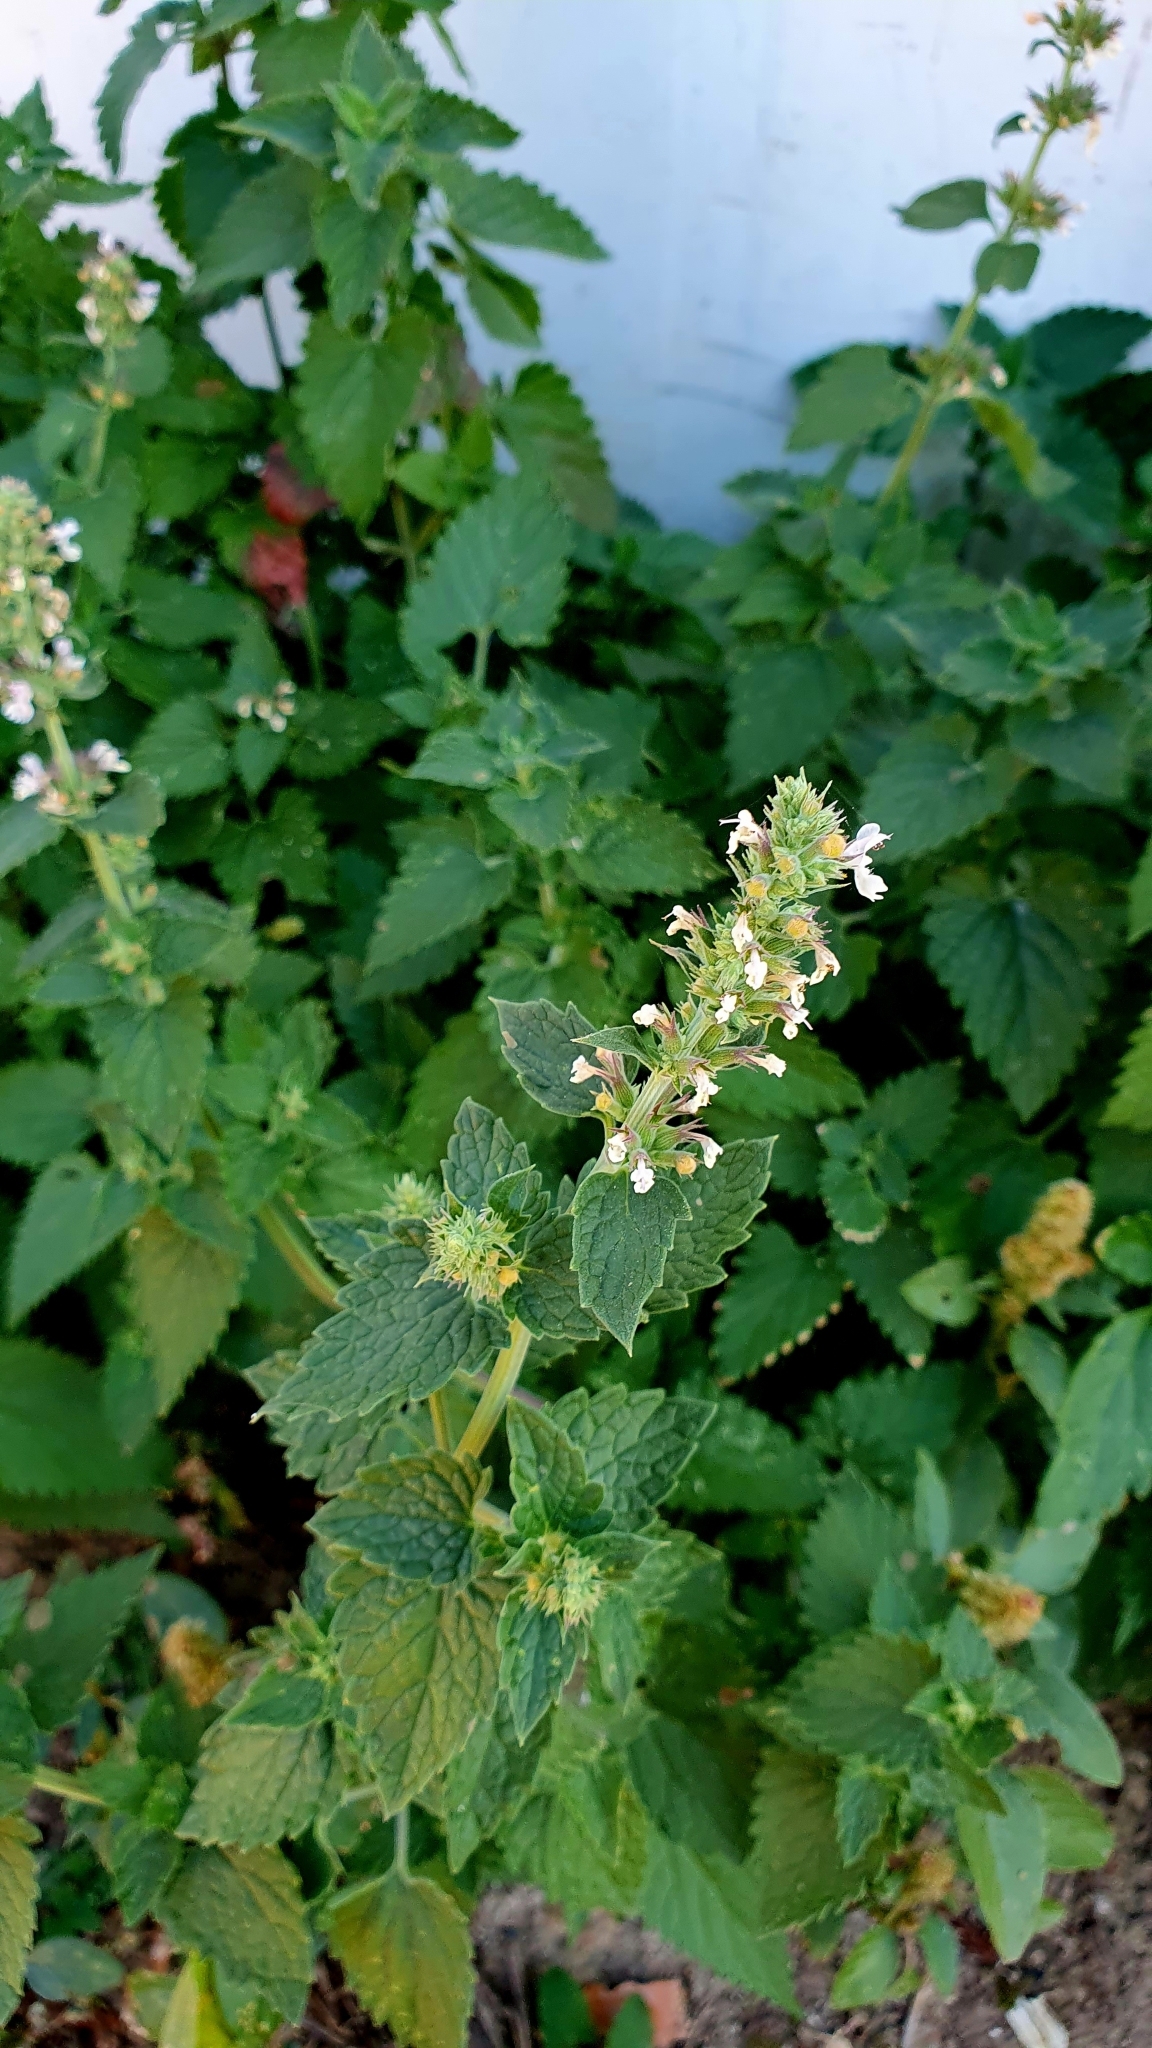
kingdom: Plantae
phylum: Tracheophyta
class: Magnoliopsida
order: Lamiales
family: Lamiaceae
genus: Nepeta
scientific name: Nepeta cataria
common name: Catnip
